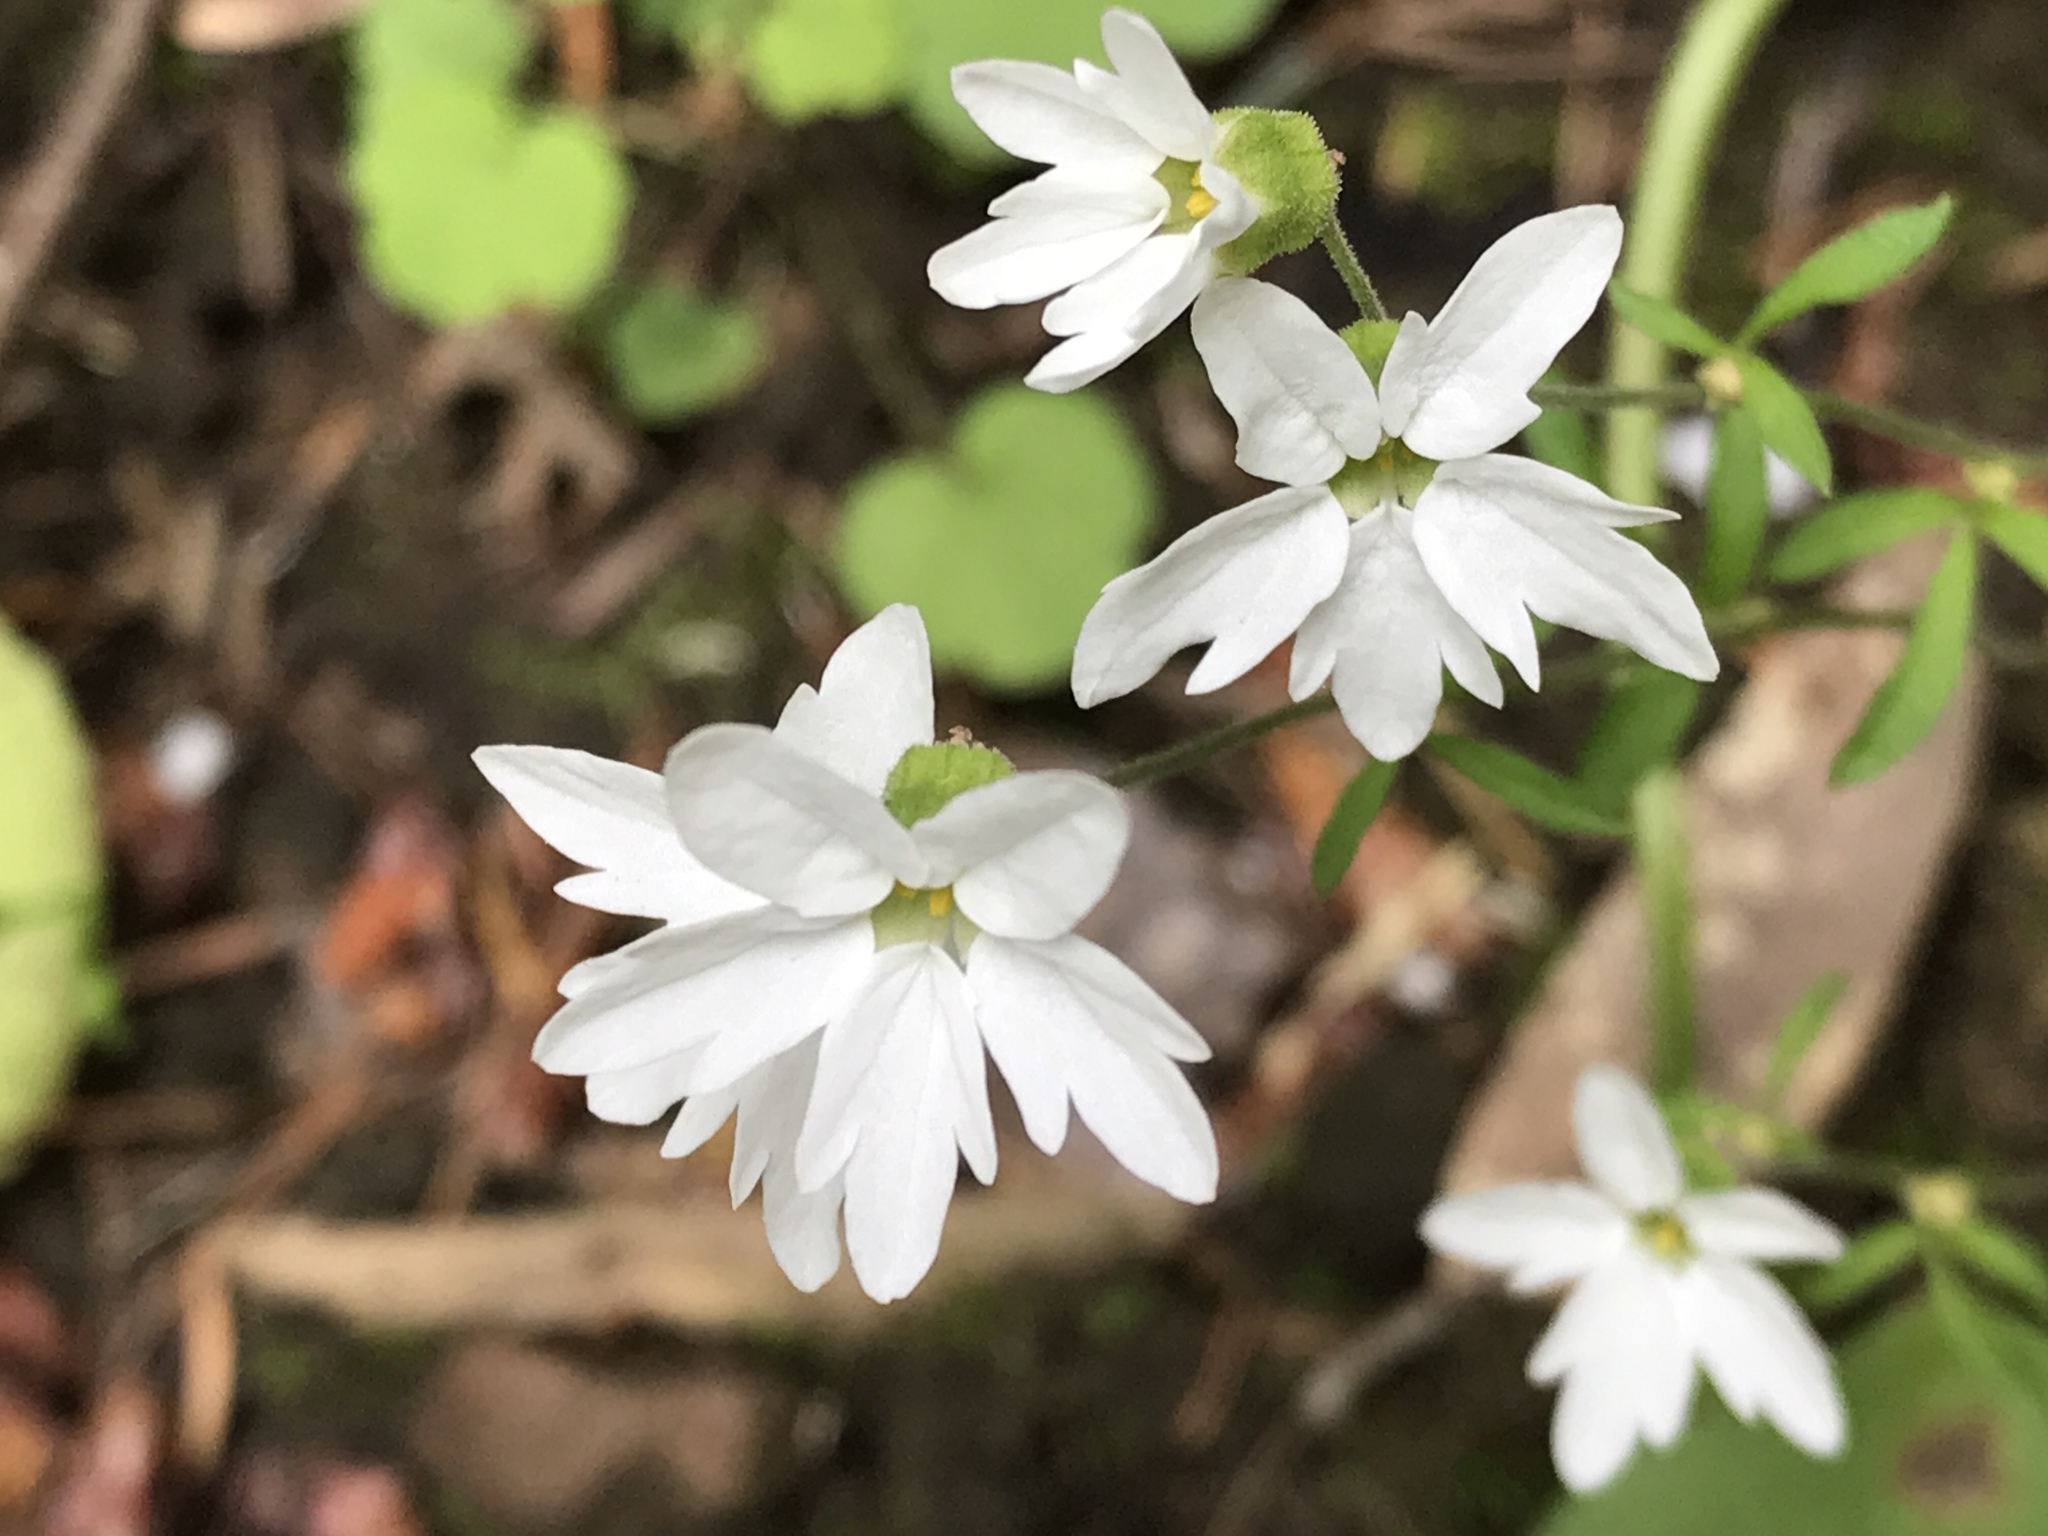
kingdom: Plantae
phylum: Tracheophyta
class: Magnoliopsida
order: Saxifragales
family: Saxifragaceae
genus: Lithophragma
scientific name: Lithophragma heterophyllum
